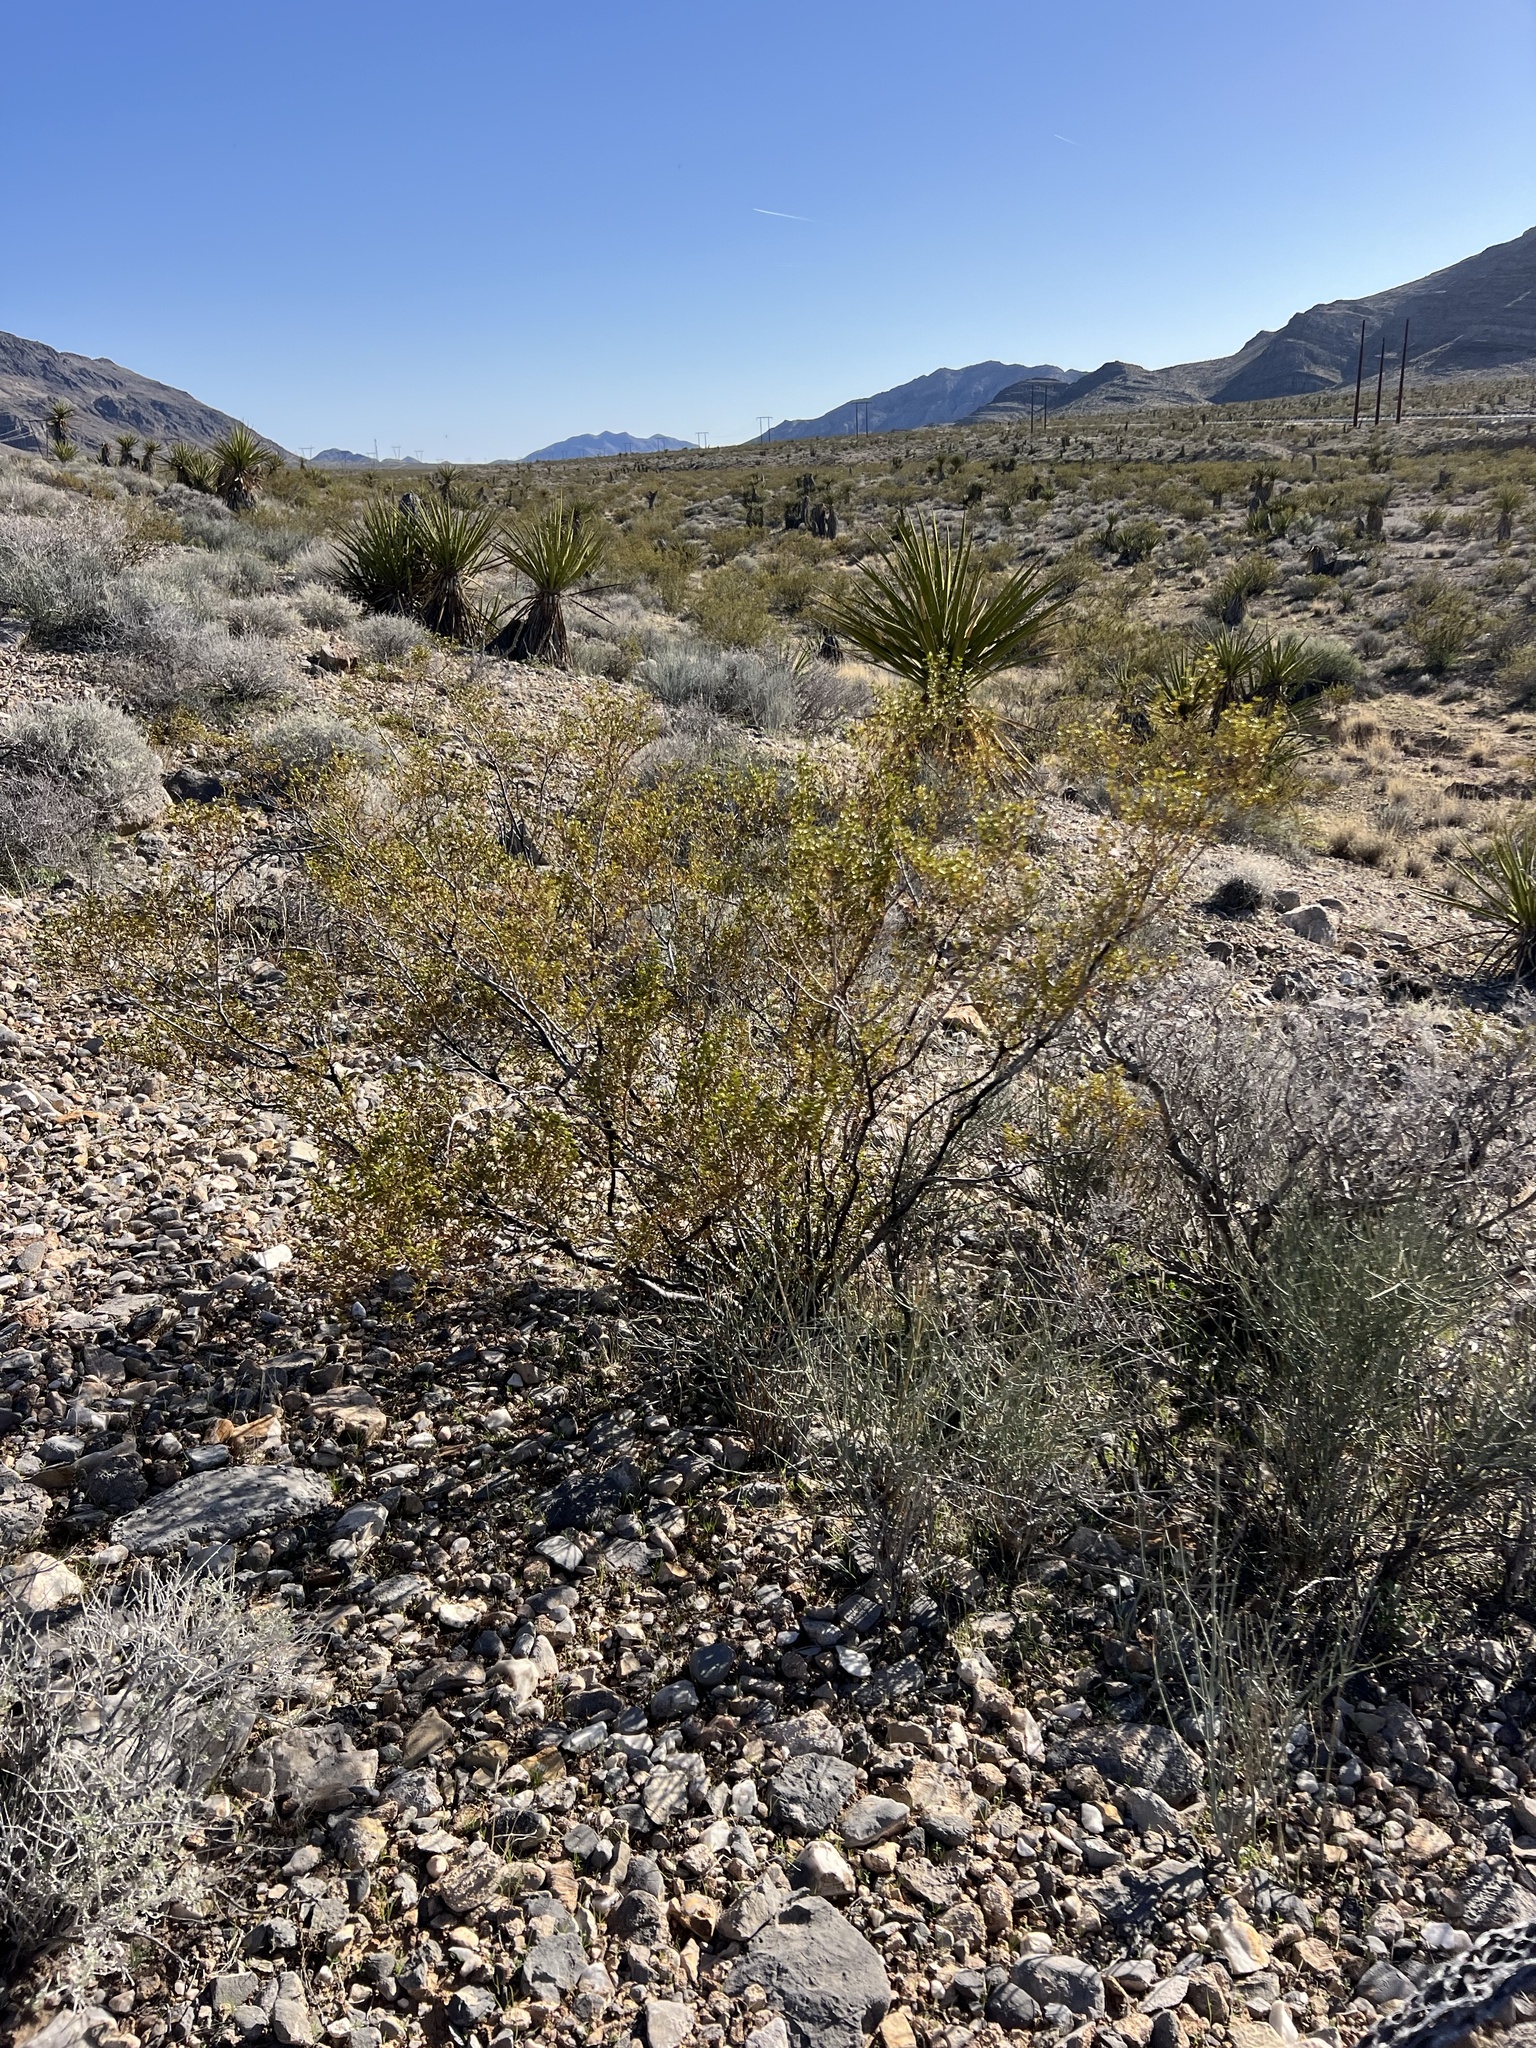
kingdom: Plantae
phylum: Tracheophyta
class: Magnoliopsida
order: Zygophyllales
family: Zygophyllaceae
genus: Larrea
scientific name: Larrea tridentata
